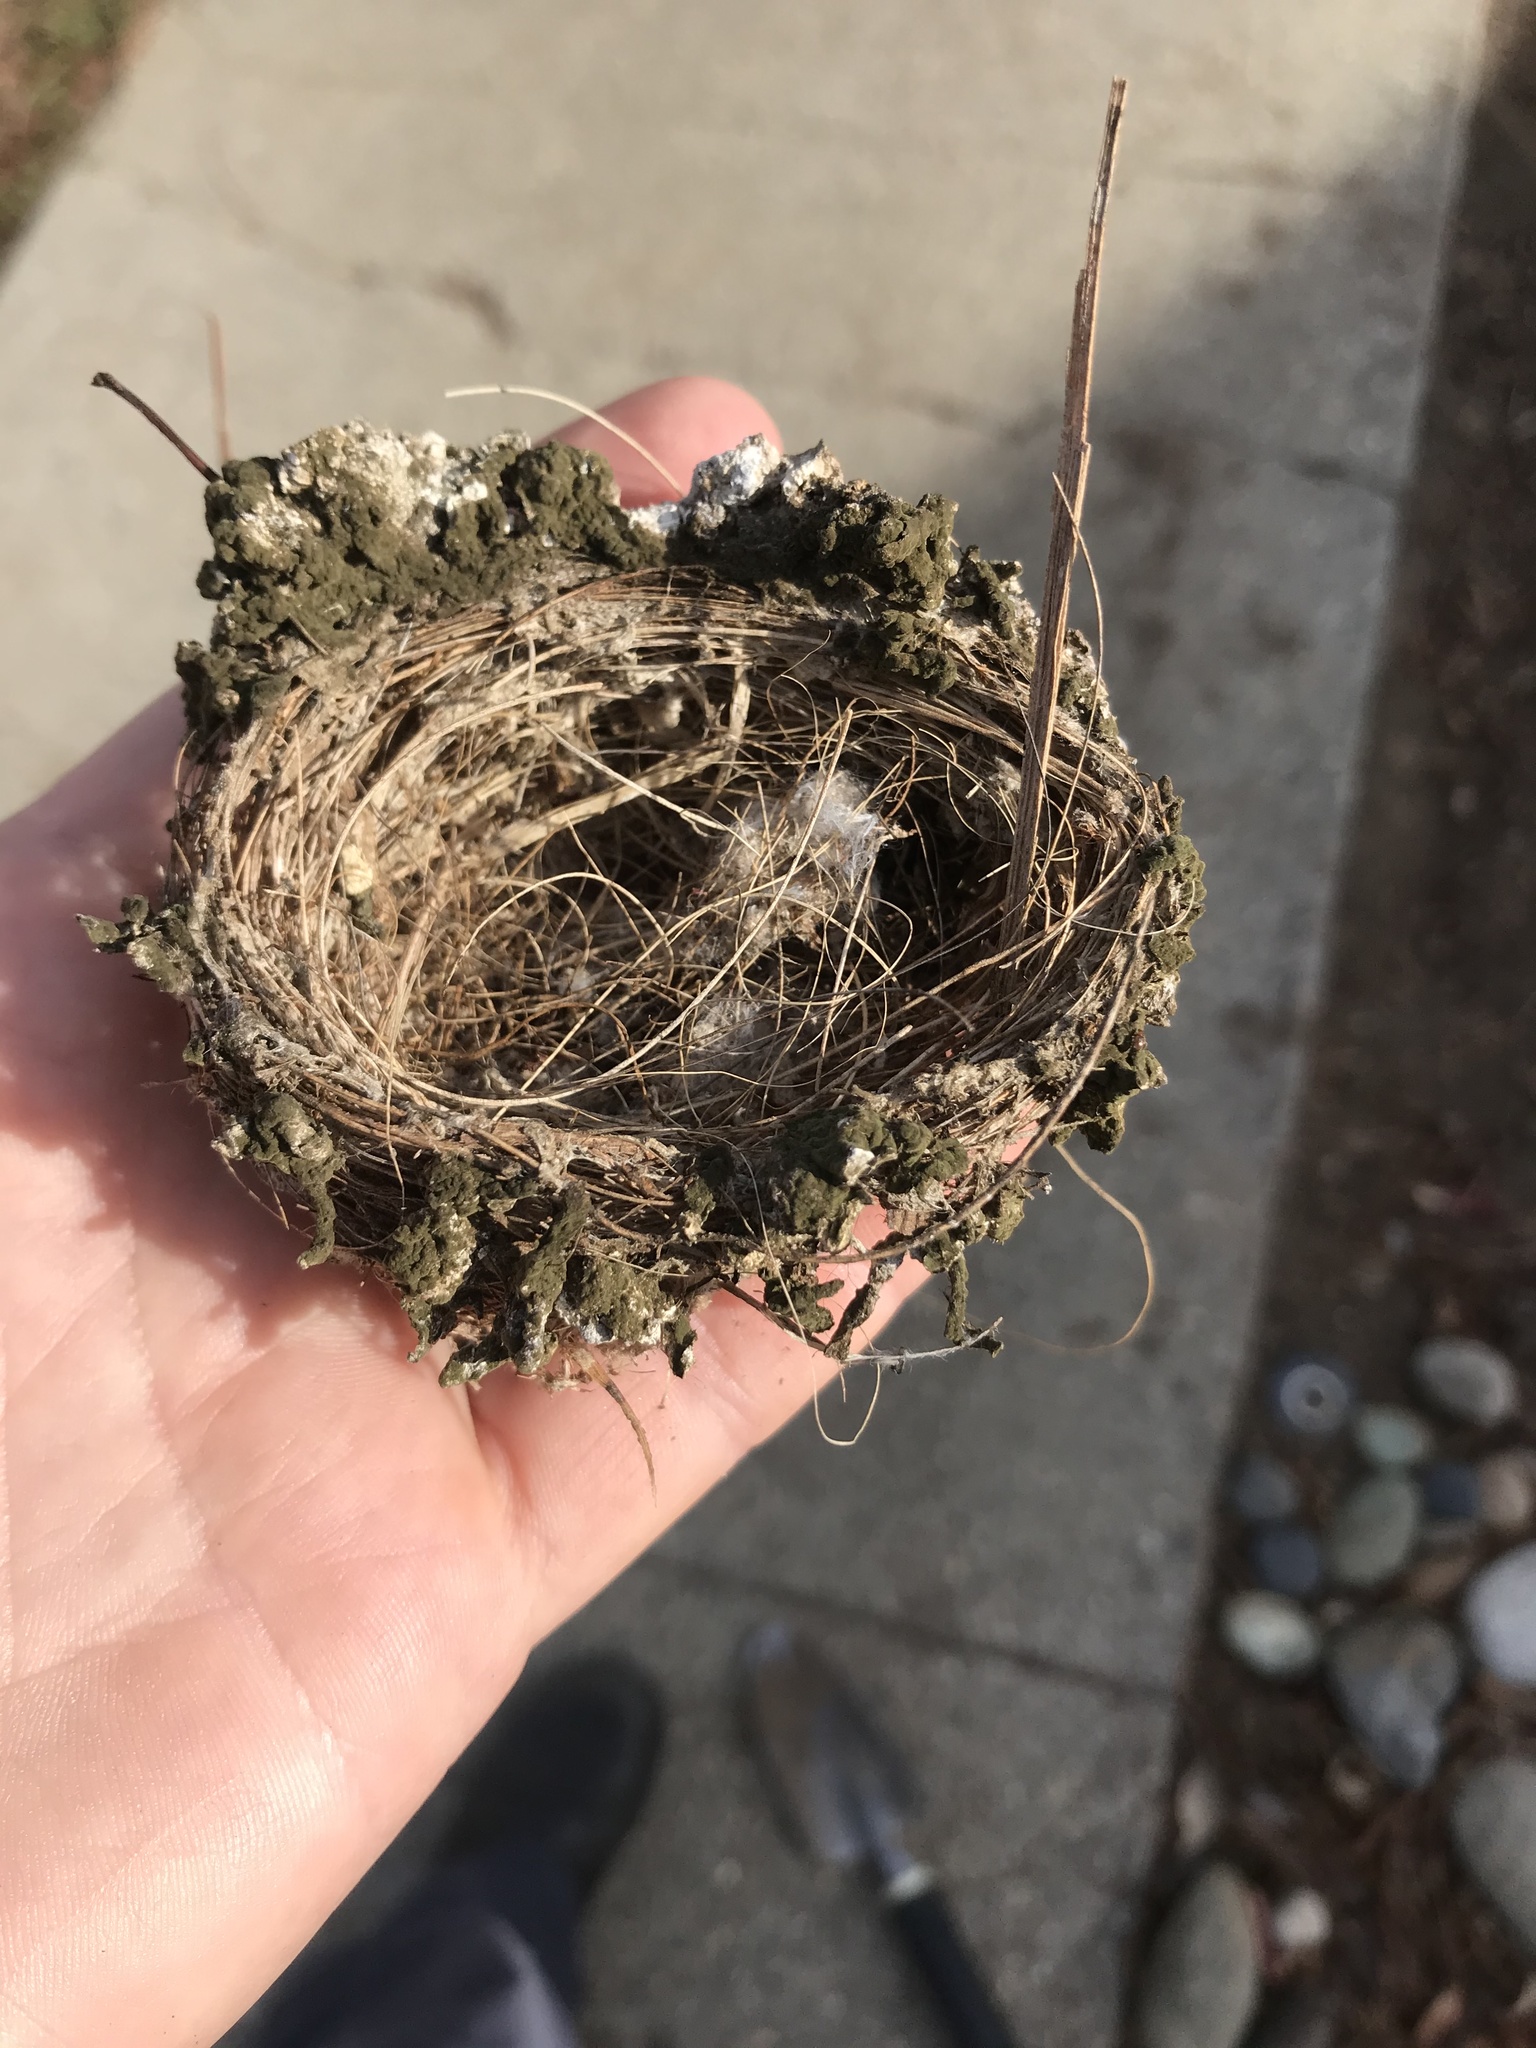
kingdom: Animalia
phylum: Chordata
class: Aves
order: Passeriformes
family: Fringillidae
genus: Spinus
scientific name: Spinus psaltria
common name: Lesser goldfinch
